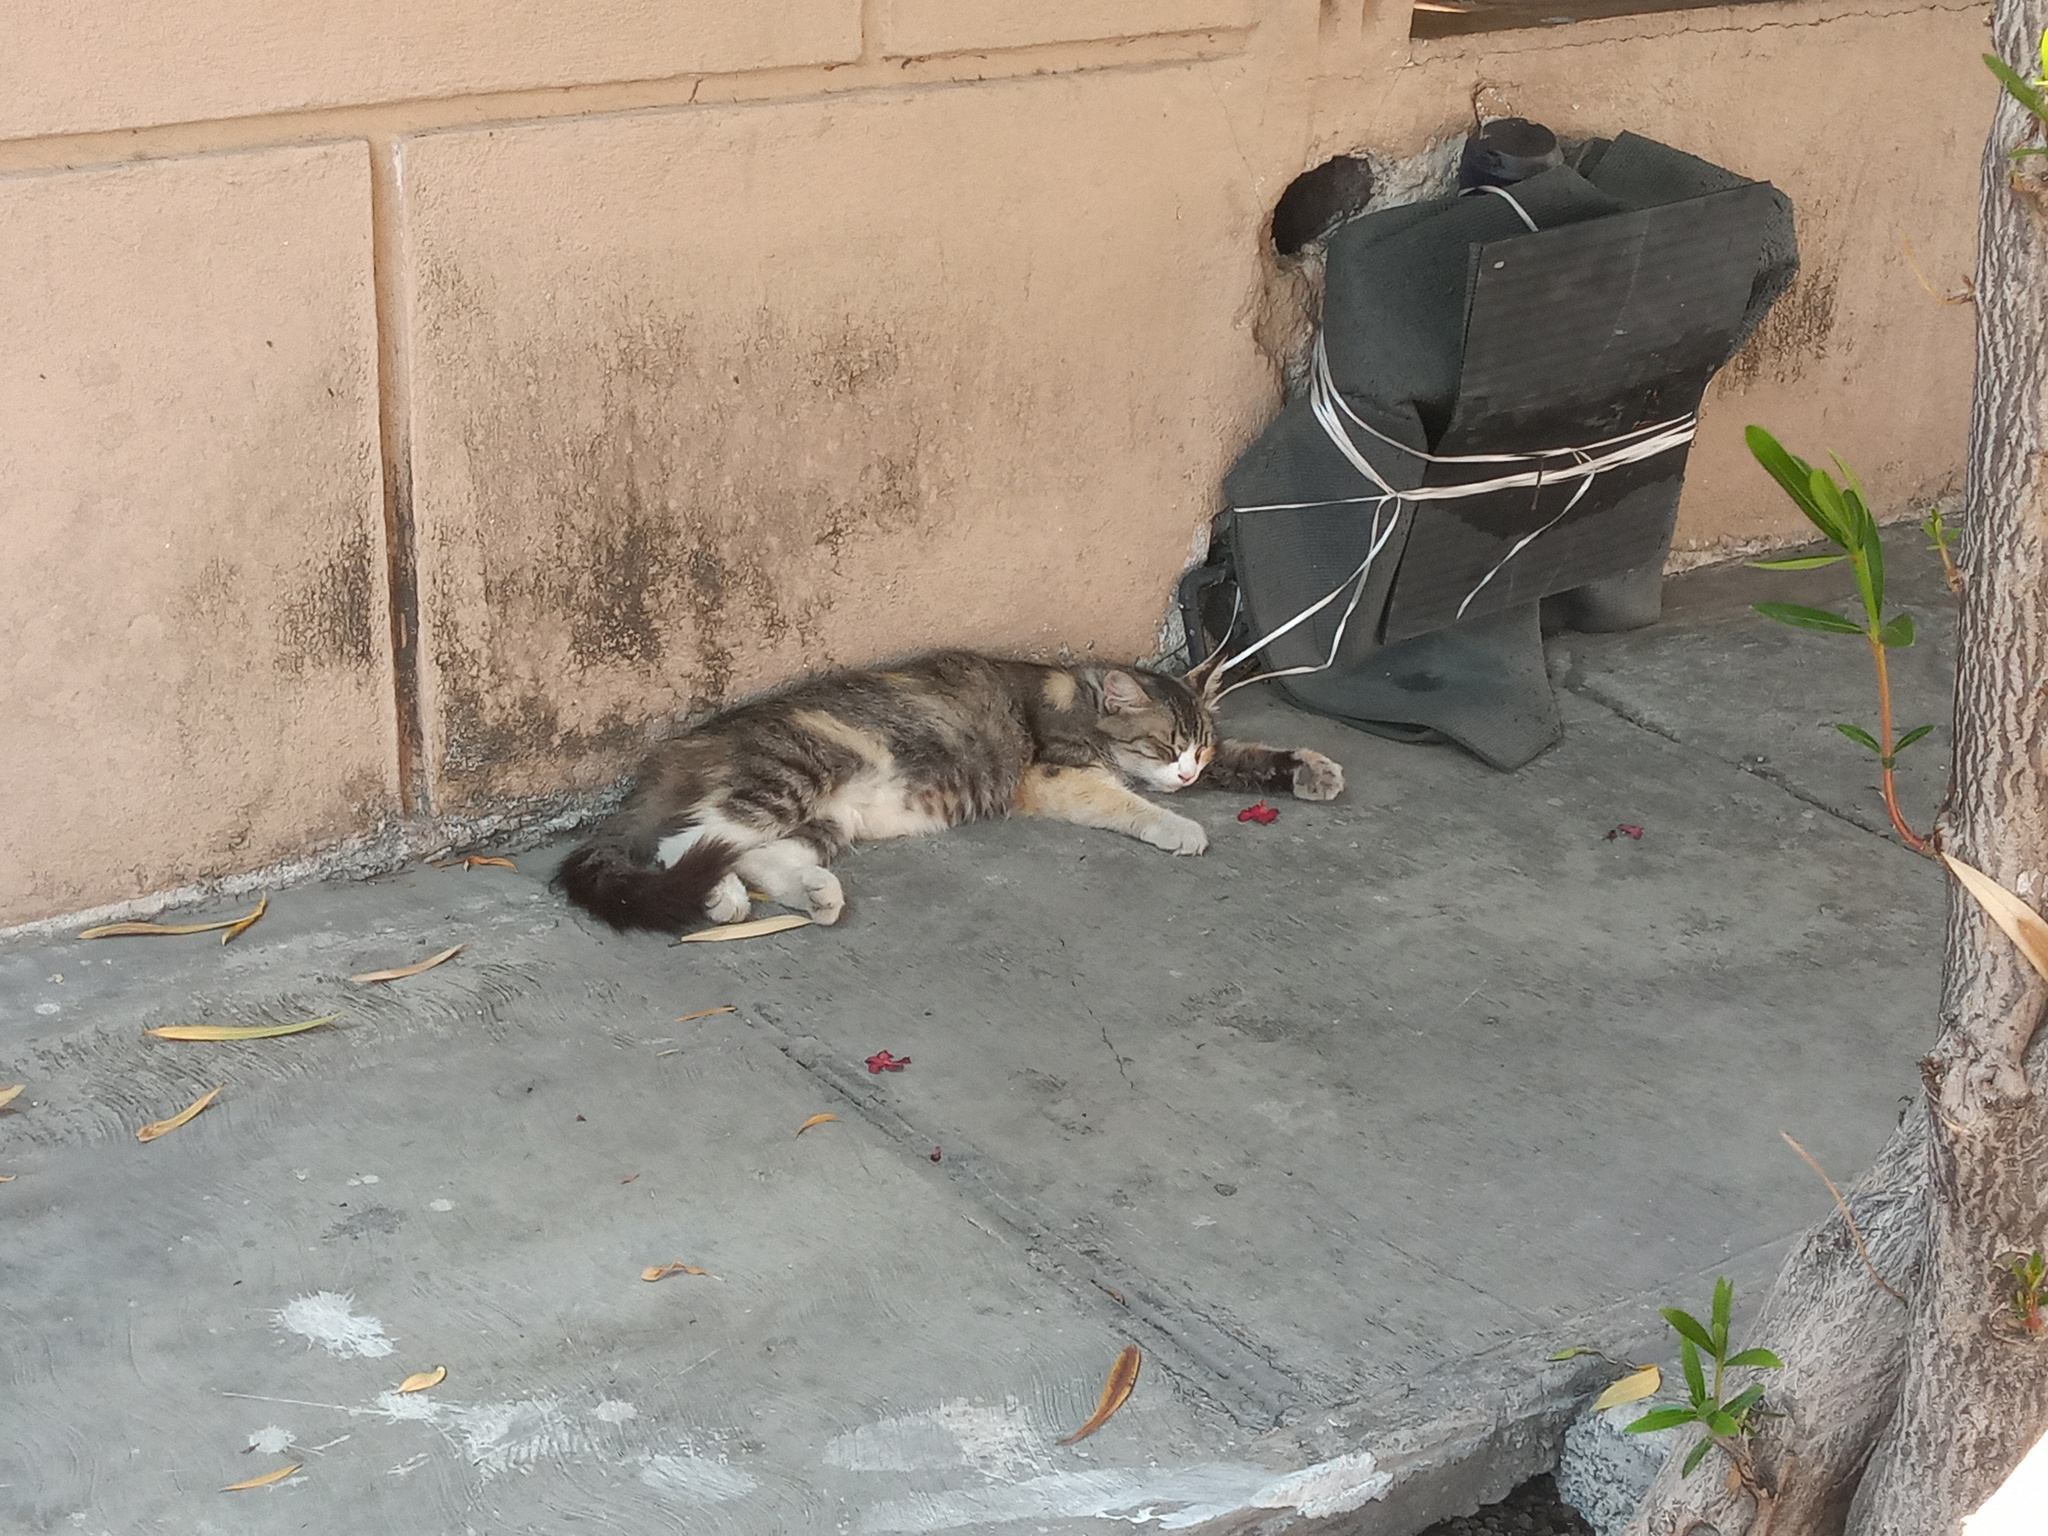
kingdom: Animalia
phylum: Chordata
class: Mammalia
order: Carnivora
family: Felidae
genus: Felis
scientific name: Felis catus
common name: Domestic cat
